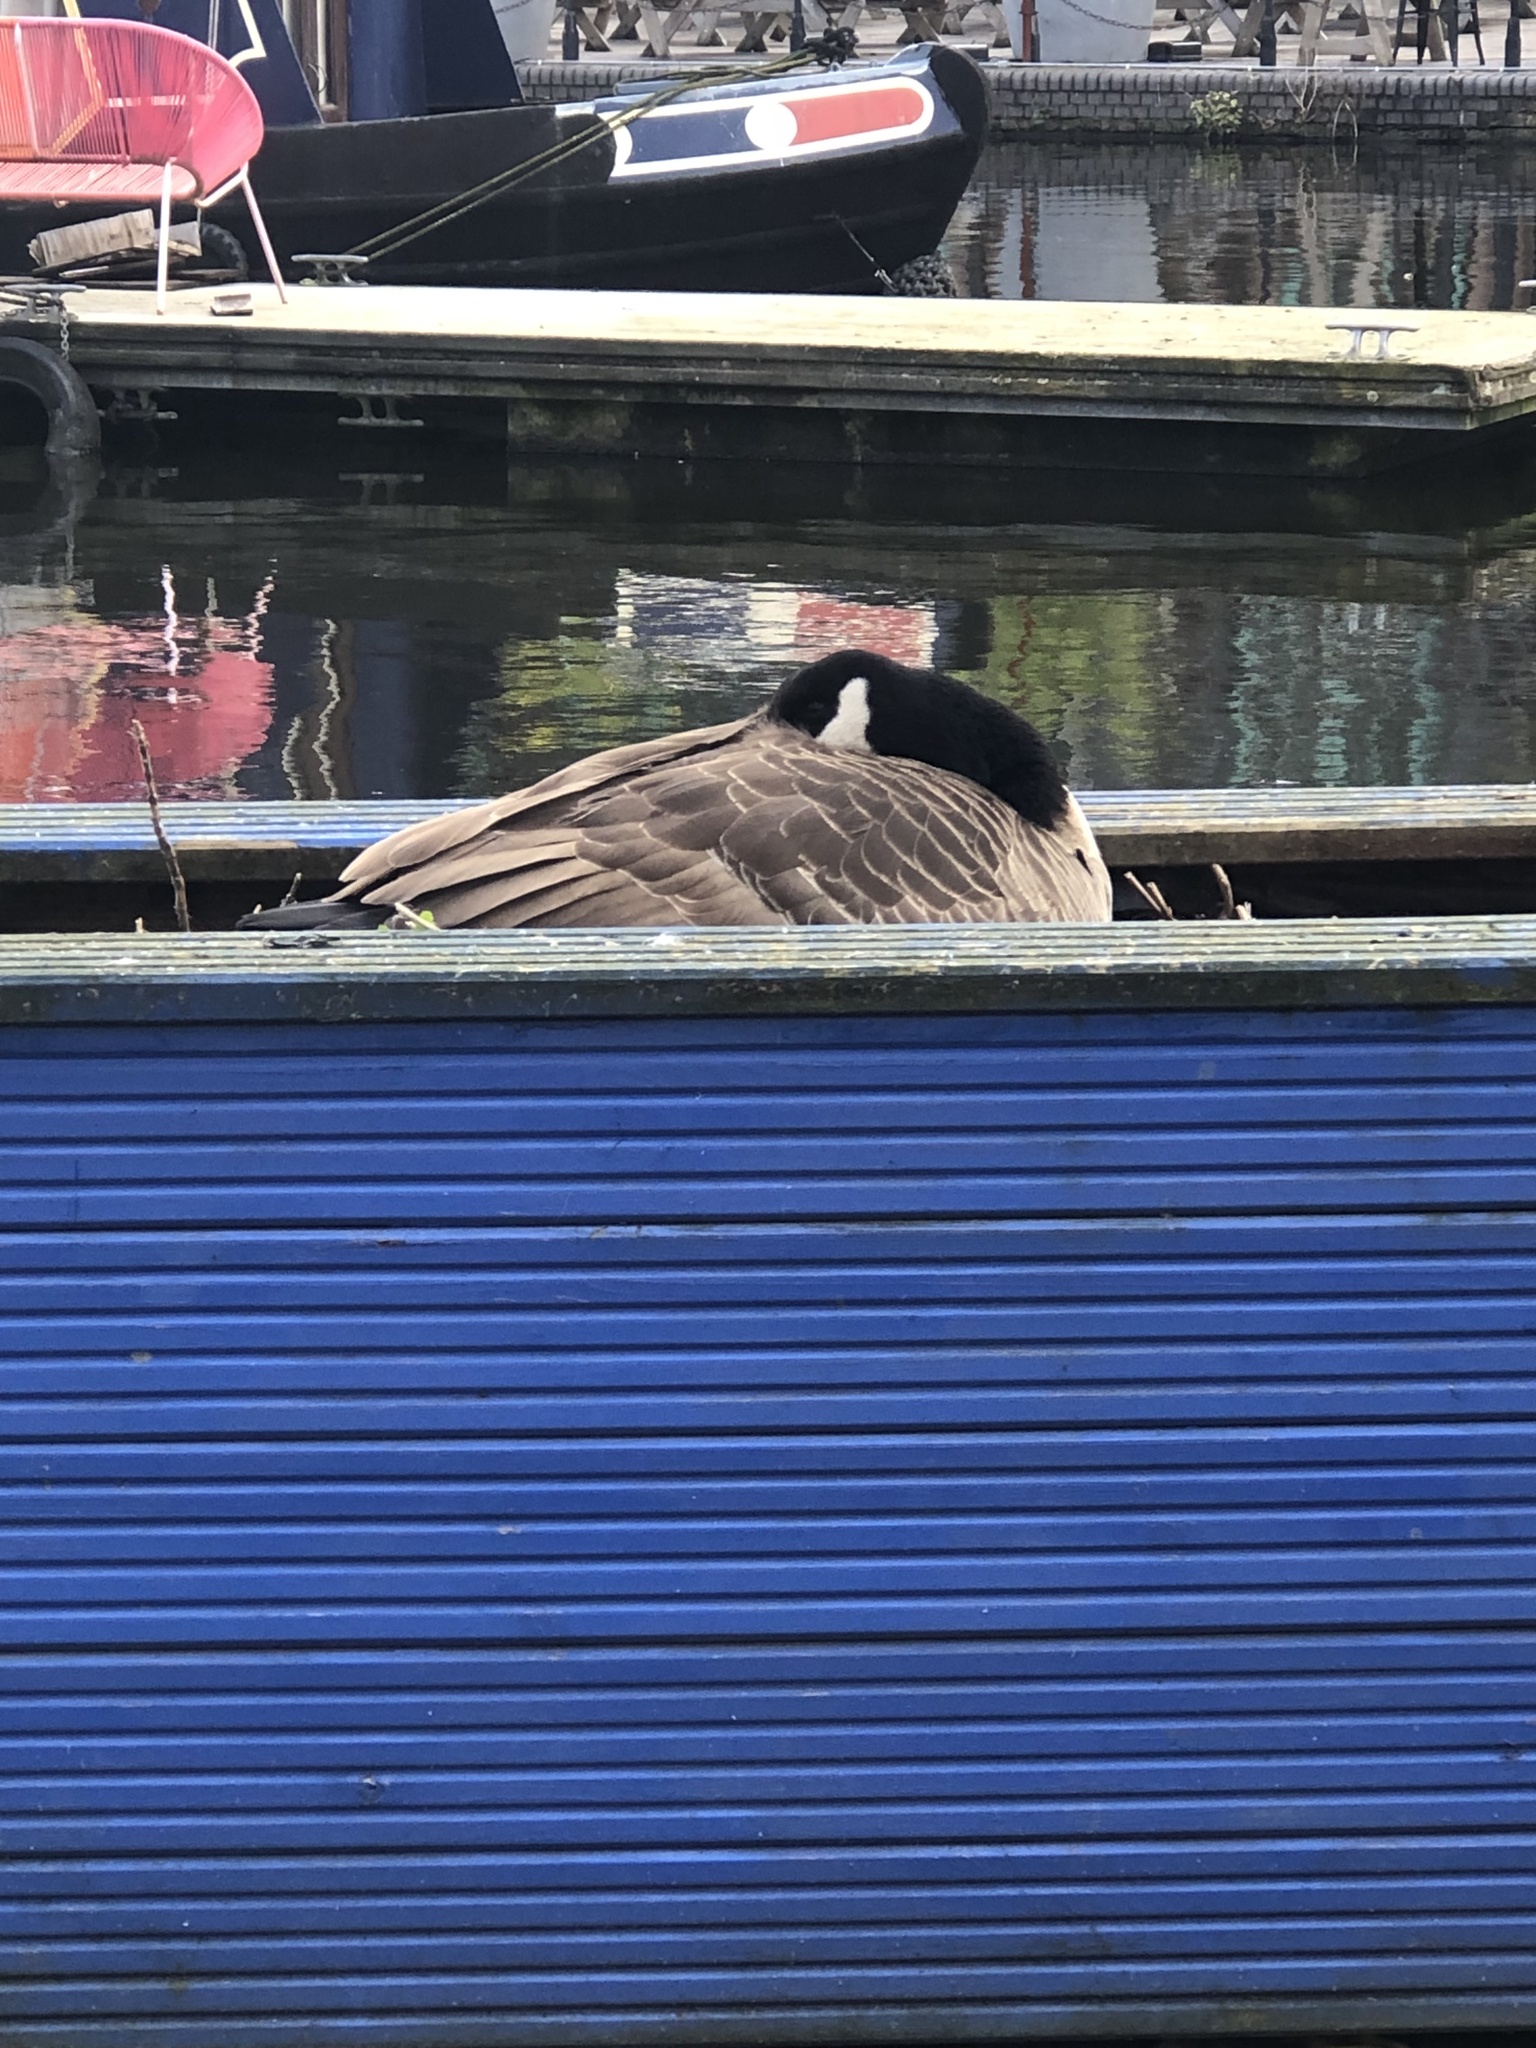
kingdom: Animalia
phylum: Chordata
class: Aves
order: Anseriformes
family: Anatidae
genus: Branta
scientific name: Branta canadensis
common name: Canada goose
